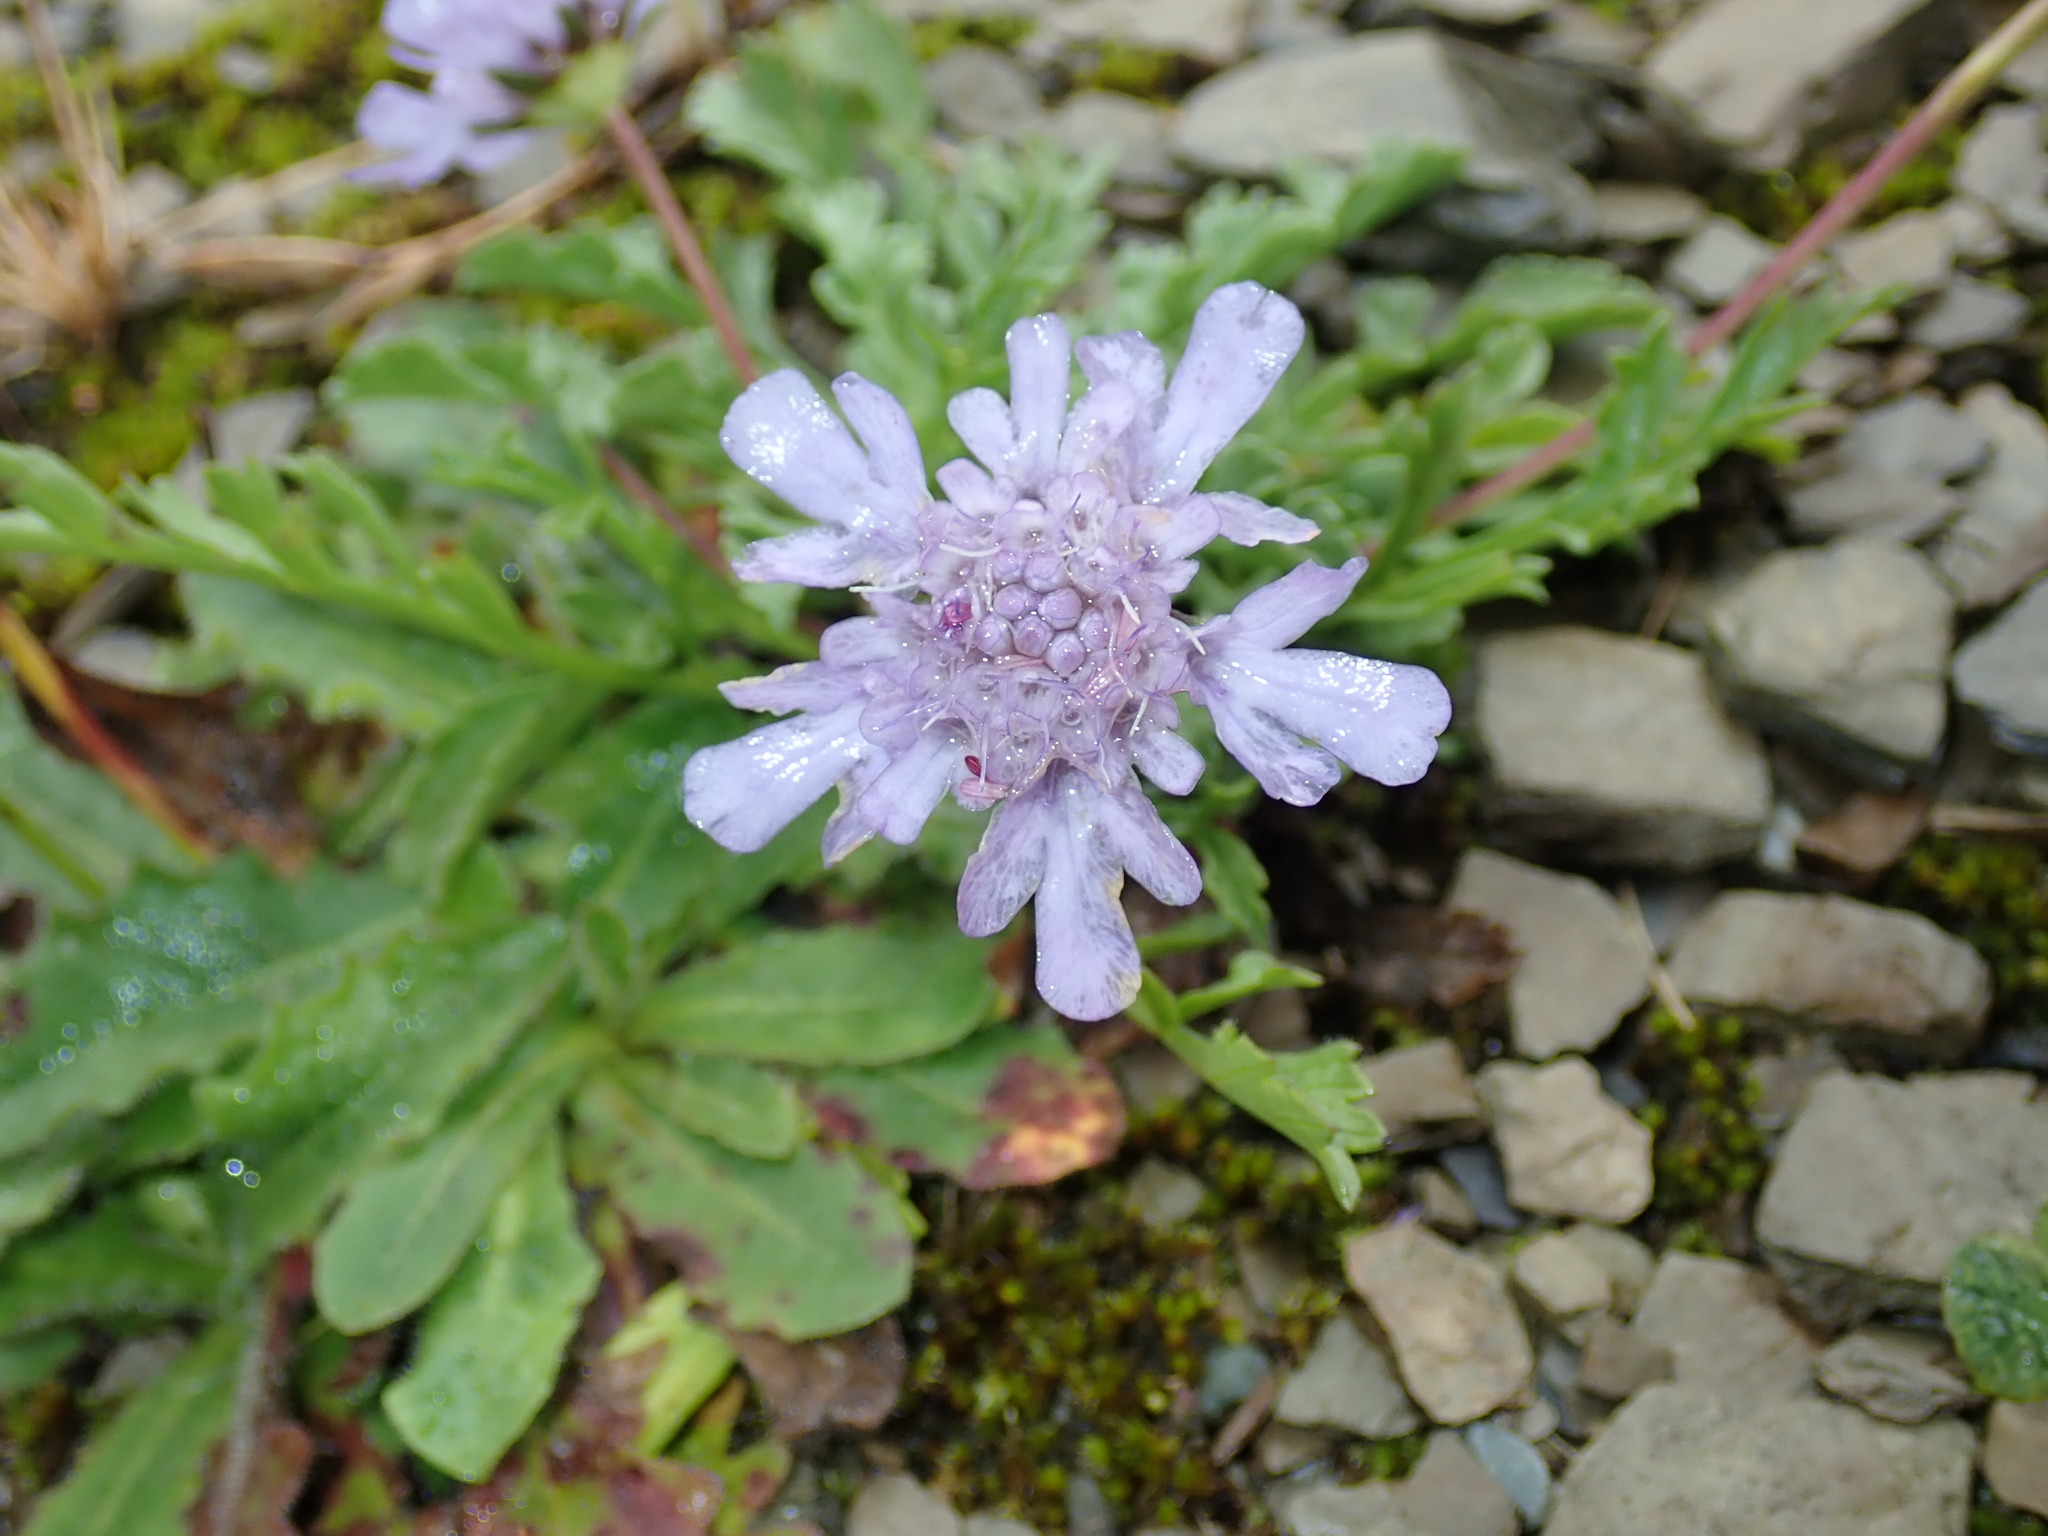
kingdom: Plantae
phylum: Tracheophyta
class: Magnoliopsida
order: Dipsacales
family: Caprifoliaceae
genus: Scabiosa
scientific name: Scabiosa lacerifolia
